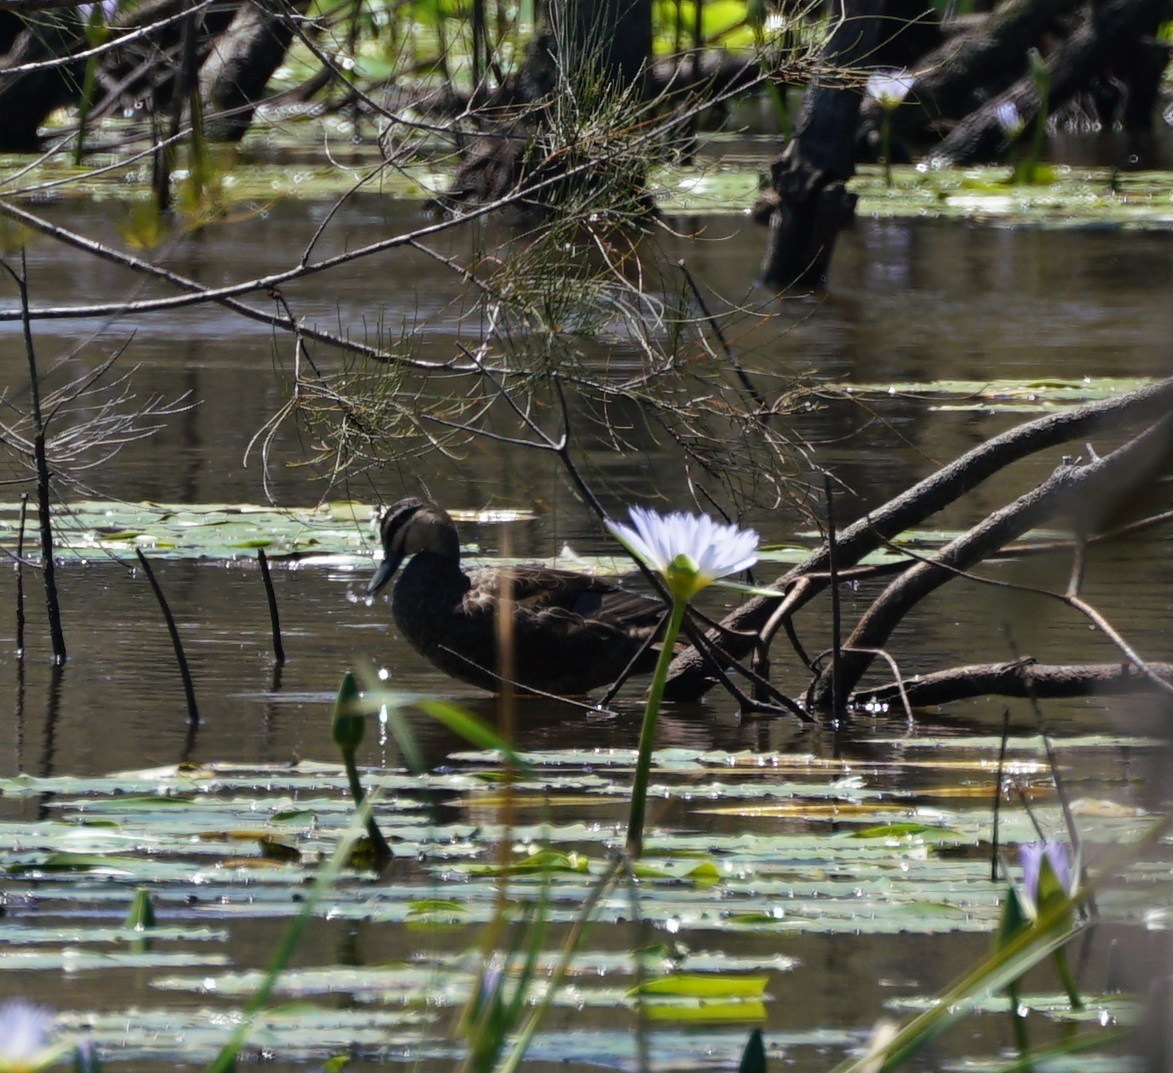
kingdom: Animalia
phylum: Chordata
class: Aves
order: Anseriformes
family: Anatidae
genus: Anas
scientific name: Anas superciliosa
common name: Pacific black duck
